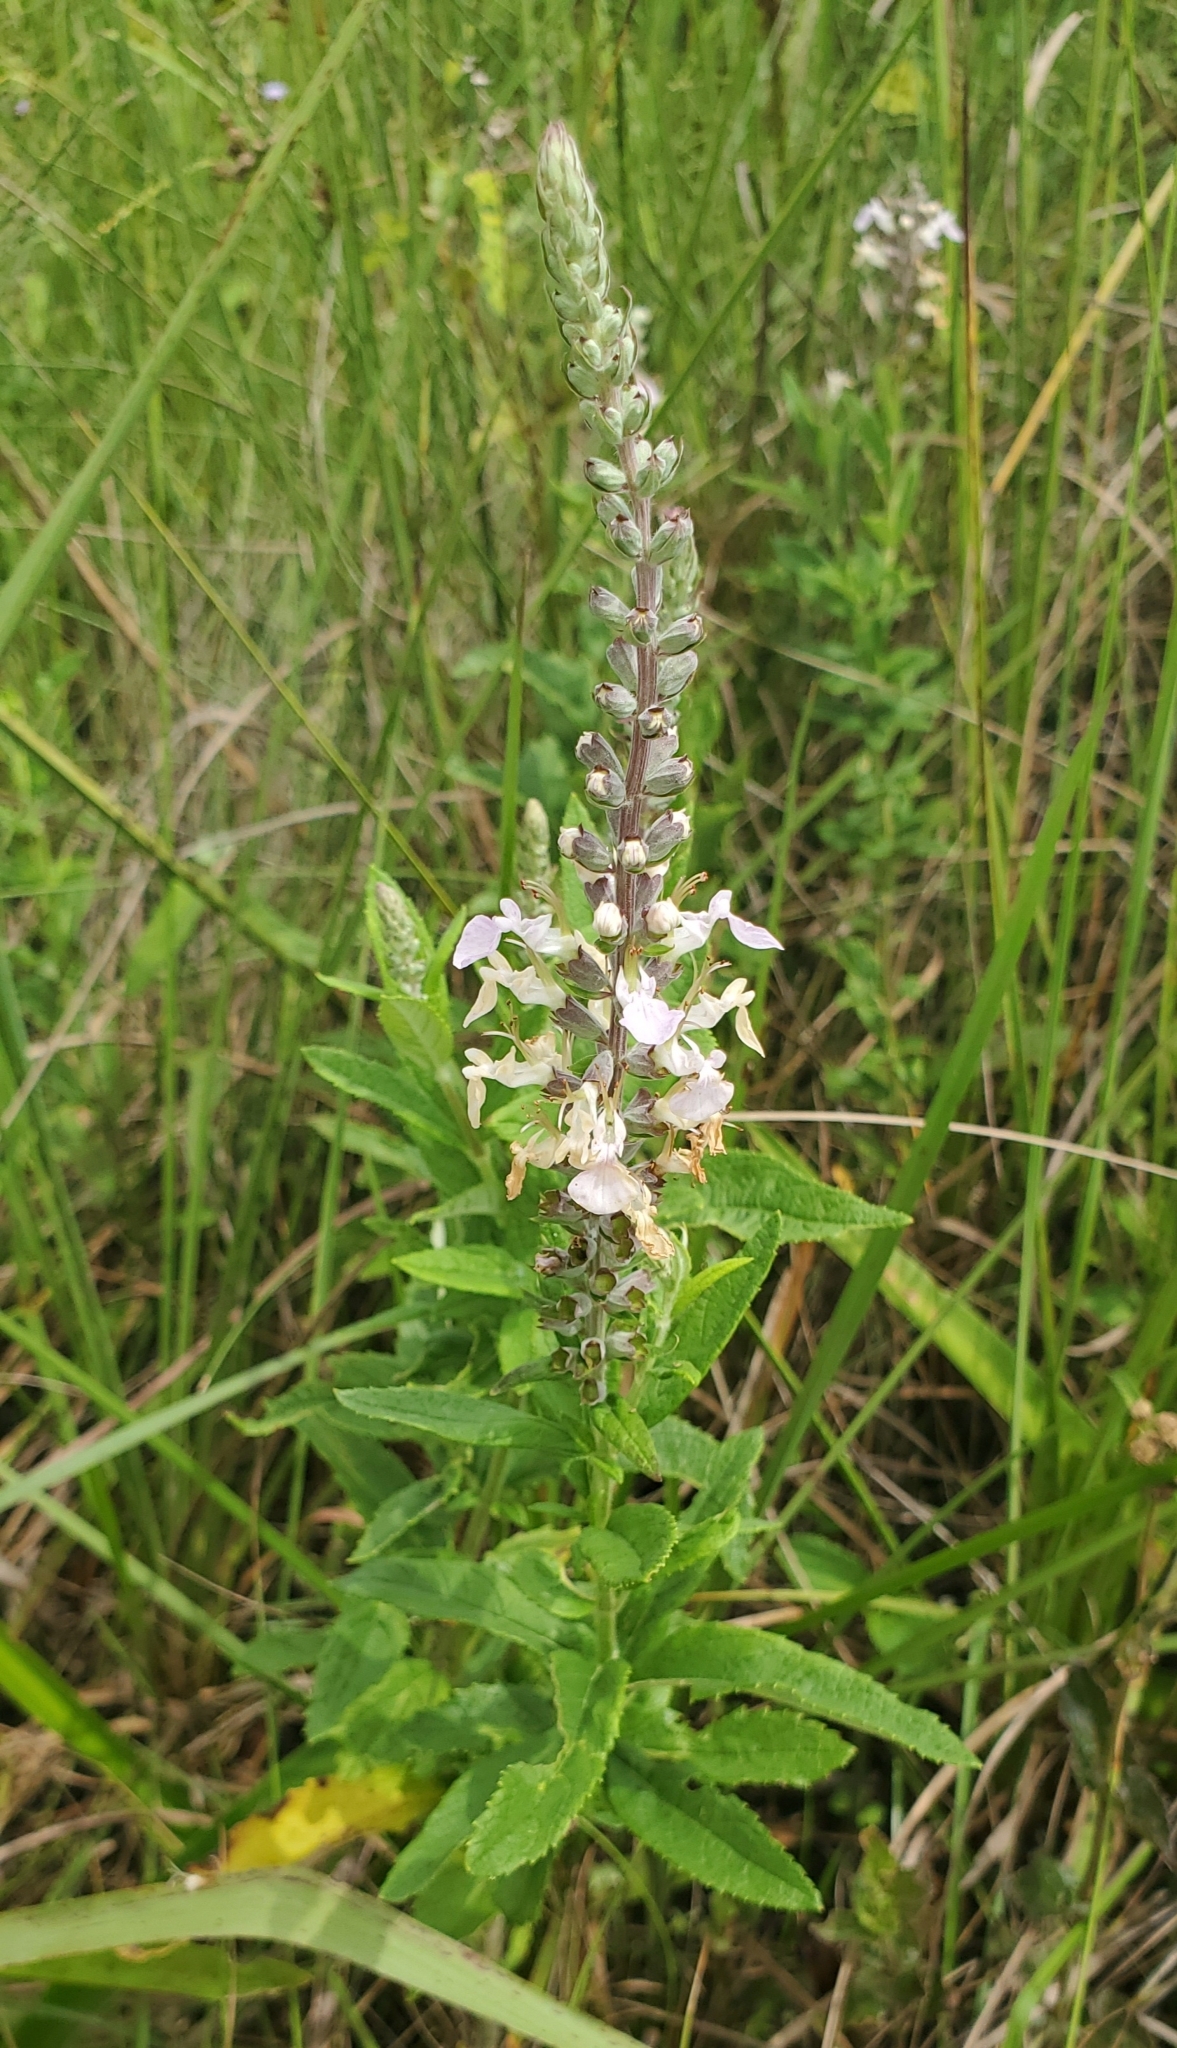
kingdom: Plantae
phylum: Tracheophyta
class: Magnoliopsida
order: Lamiales
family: Lamiaceae
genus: Teucrium
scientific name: Teucrium canadense
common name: American germander
